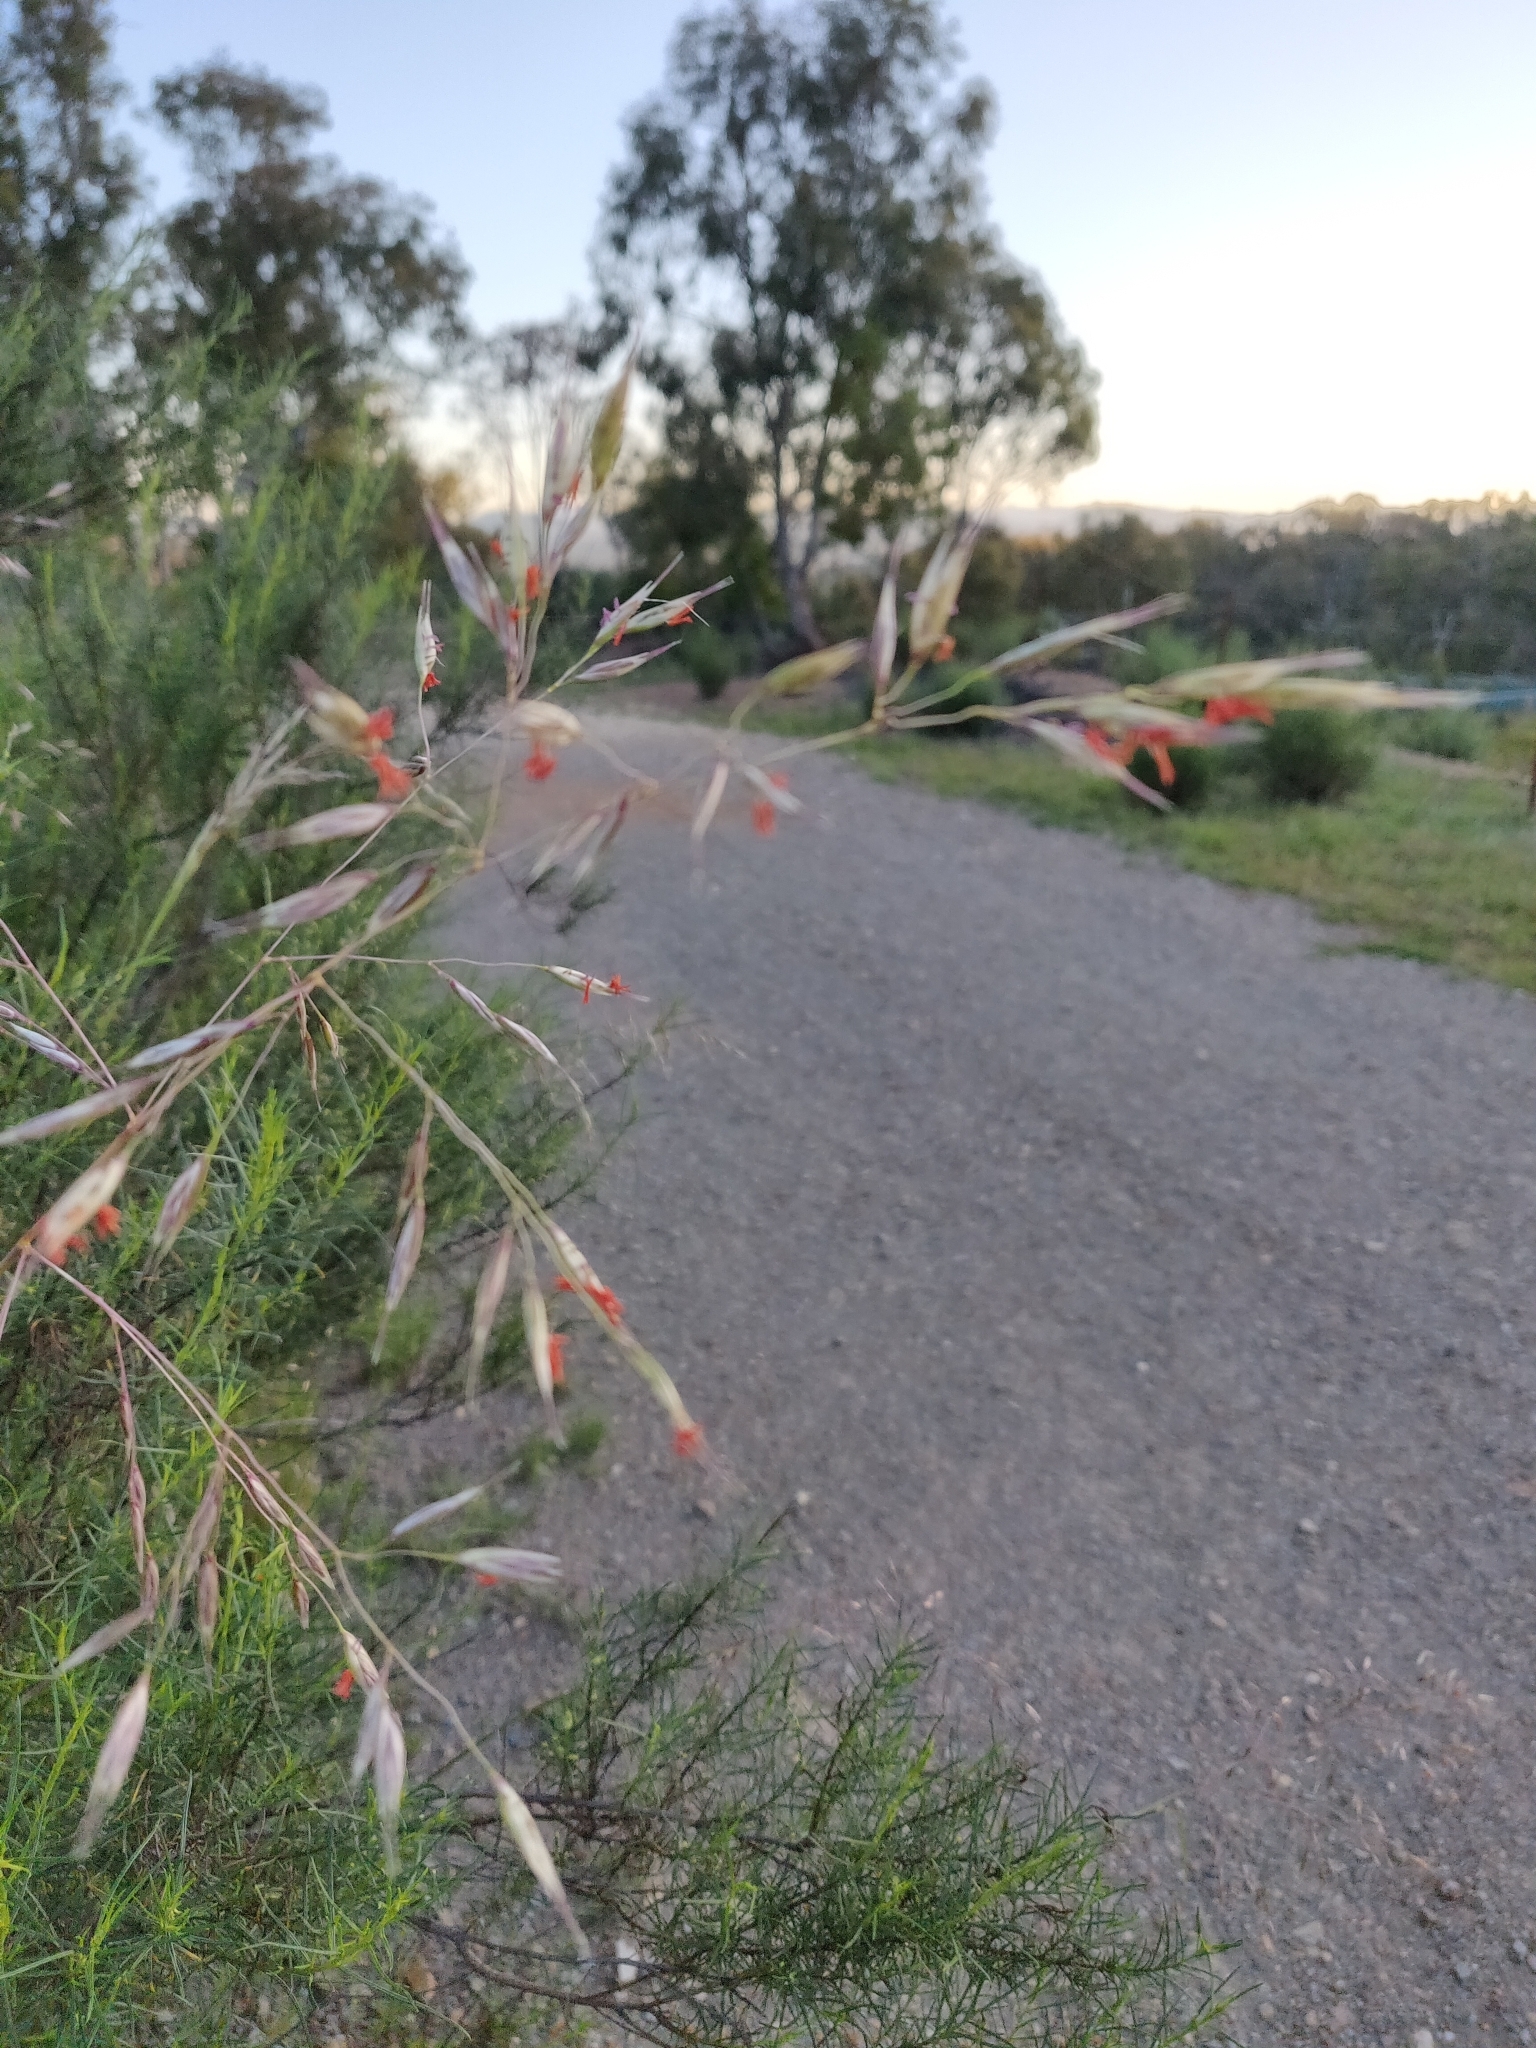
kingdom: Plantae
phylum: Tracheophyta
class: Liliopsida
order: Poales
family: Poaceae
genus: Rytidosperma
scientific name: Rytidosperma pallidum
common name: Red-anther wallaby grass
